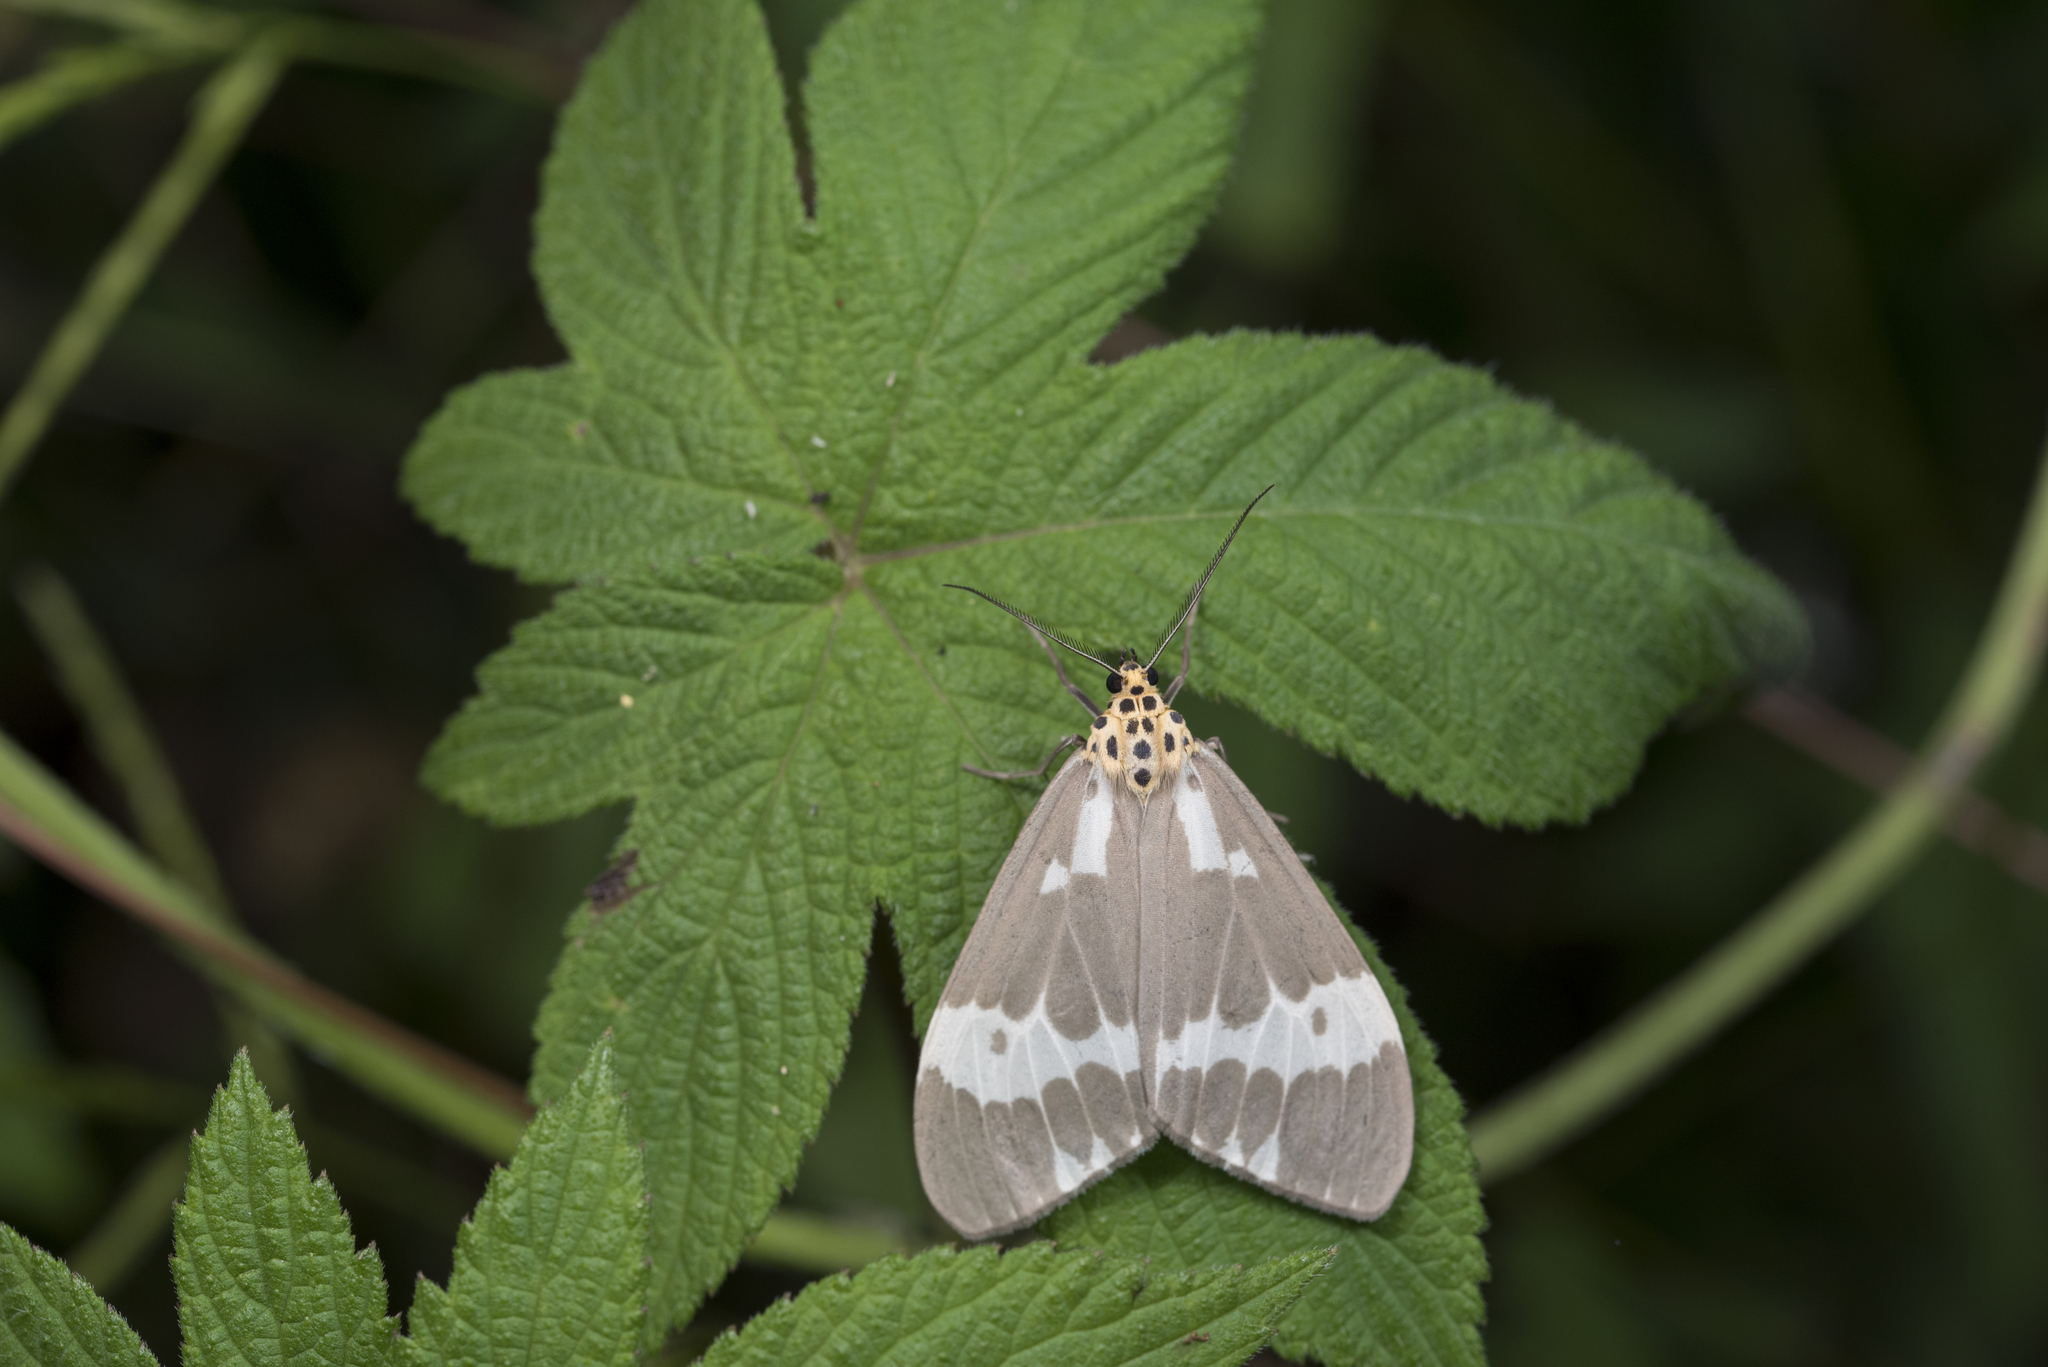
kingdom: Animalia
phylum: Arthropoda
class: Insecta
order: Lepidoptera
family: Erebidae
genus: Nyctemera
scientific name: Nyctemera arctata
